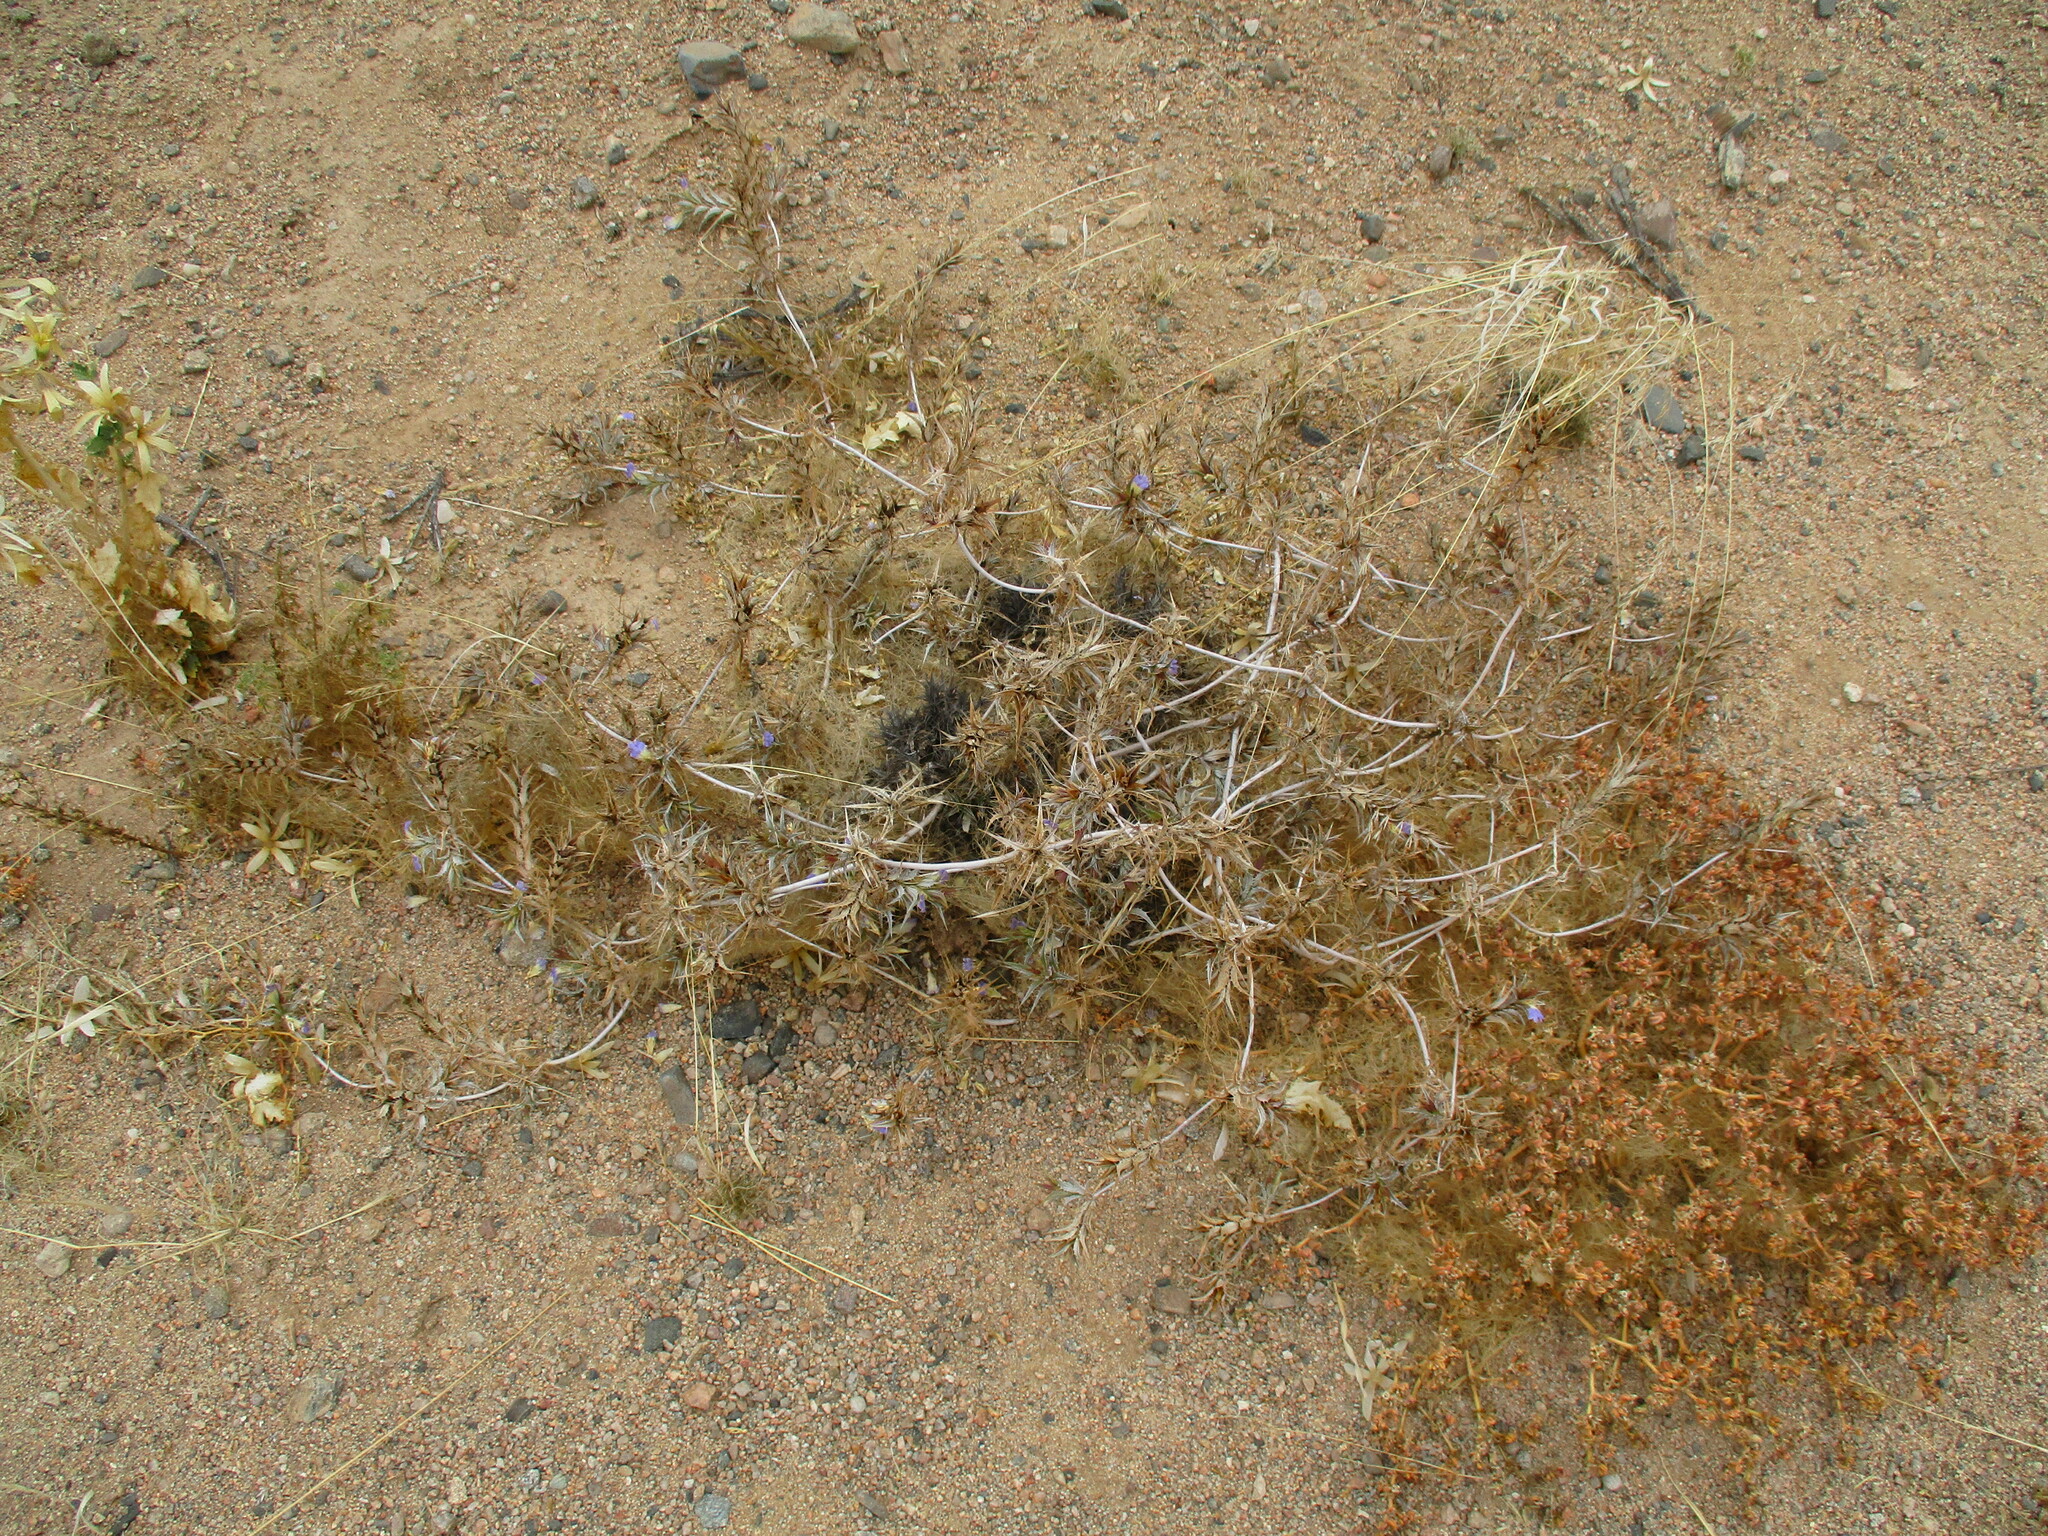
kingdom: Plantae
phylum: Tracheophyta
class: Magnoliopsida
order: Lamiales
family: Acanthaceae
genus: Blepharis
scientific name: Blepharis obmitrata
